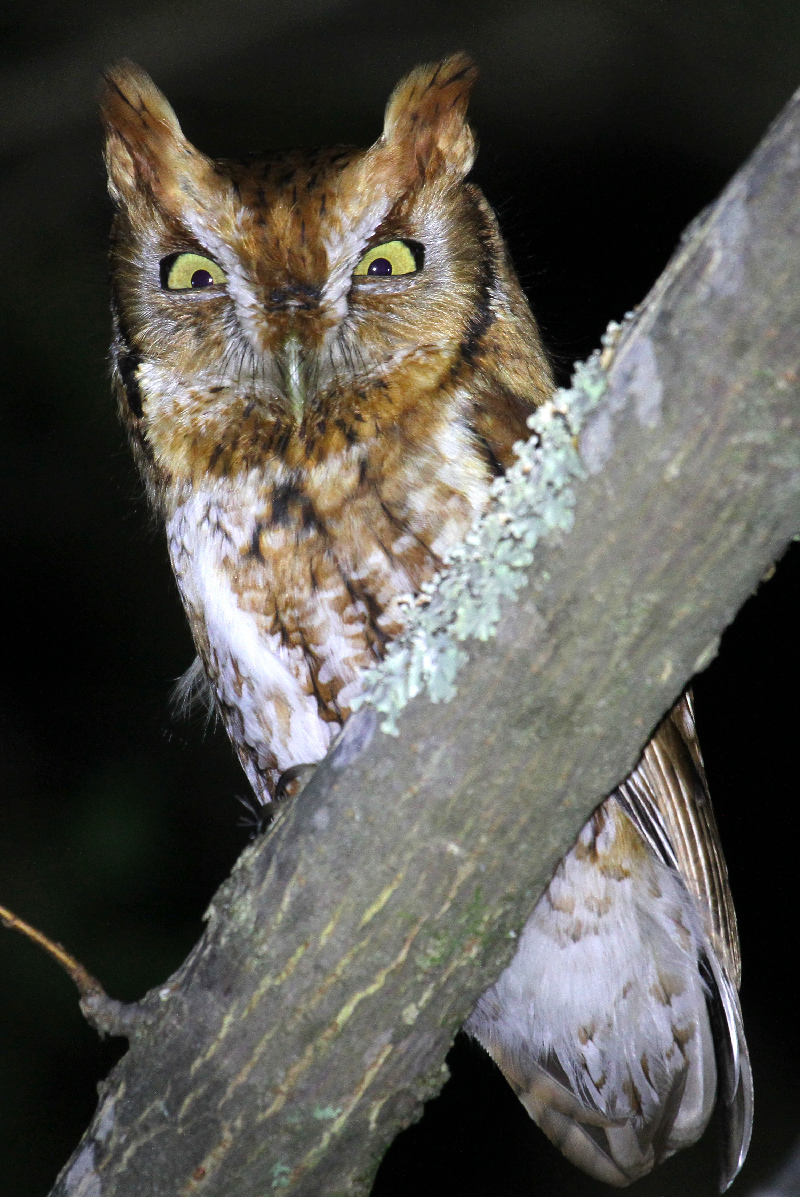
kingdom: Animalia
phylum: Chordata
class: Aves
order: Strigiformes
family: Strigidae
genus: Megascops
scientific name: Megascops asio
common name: Eastern screech-owl
